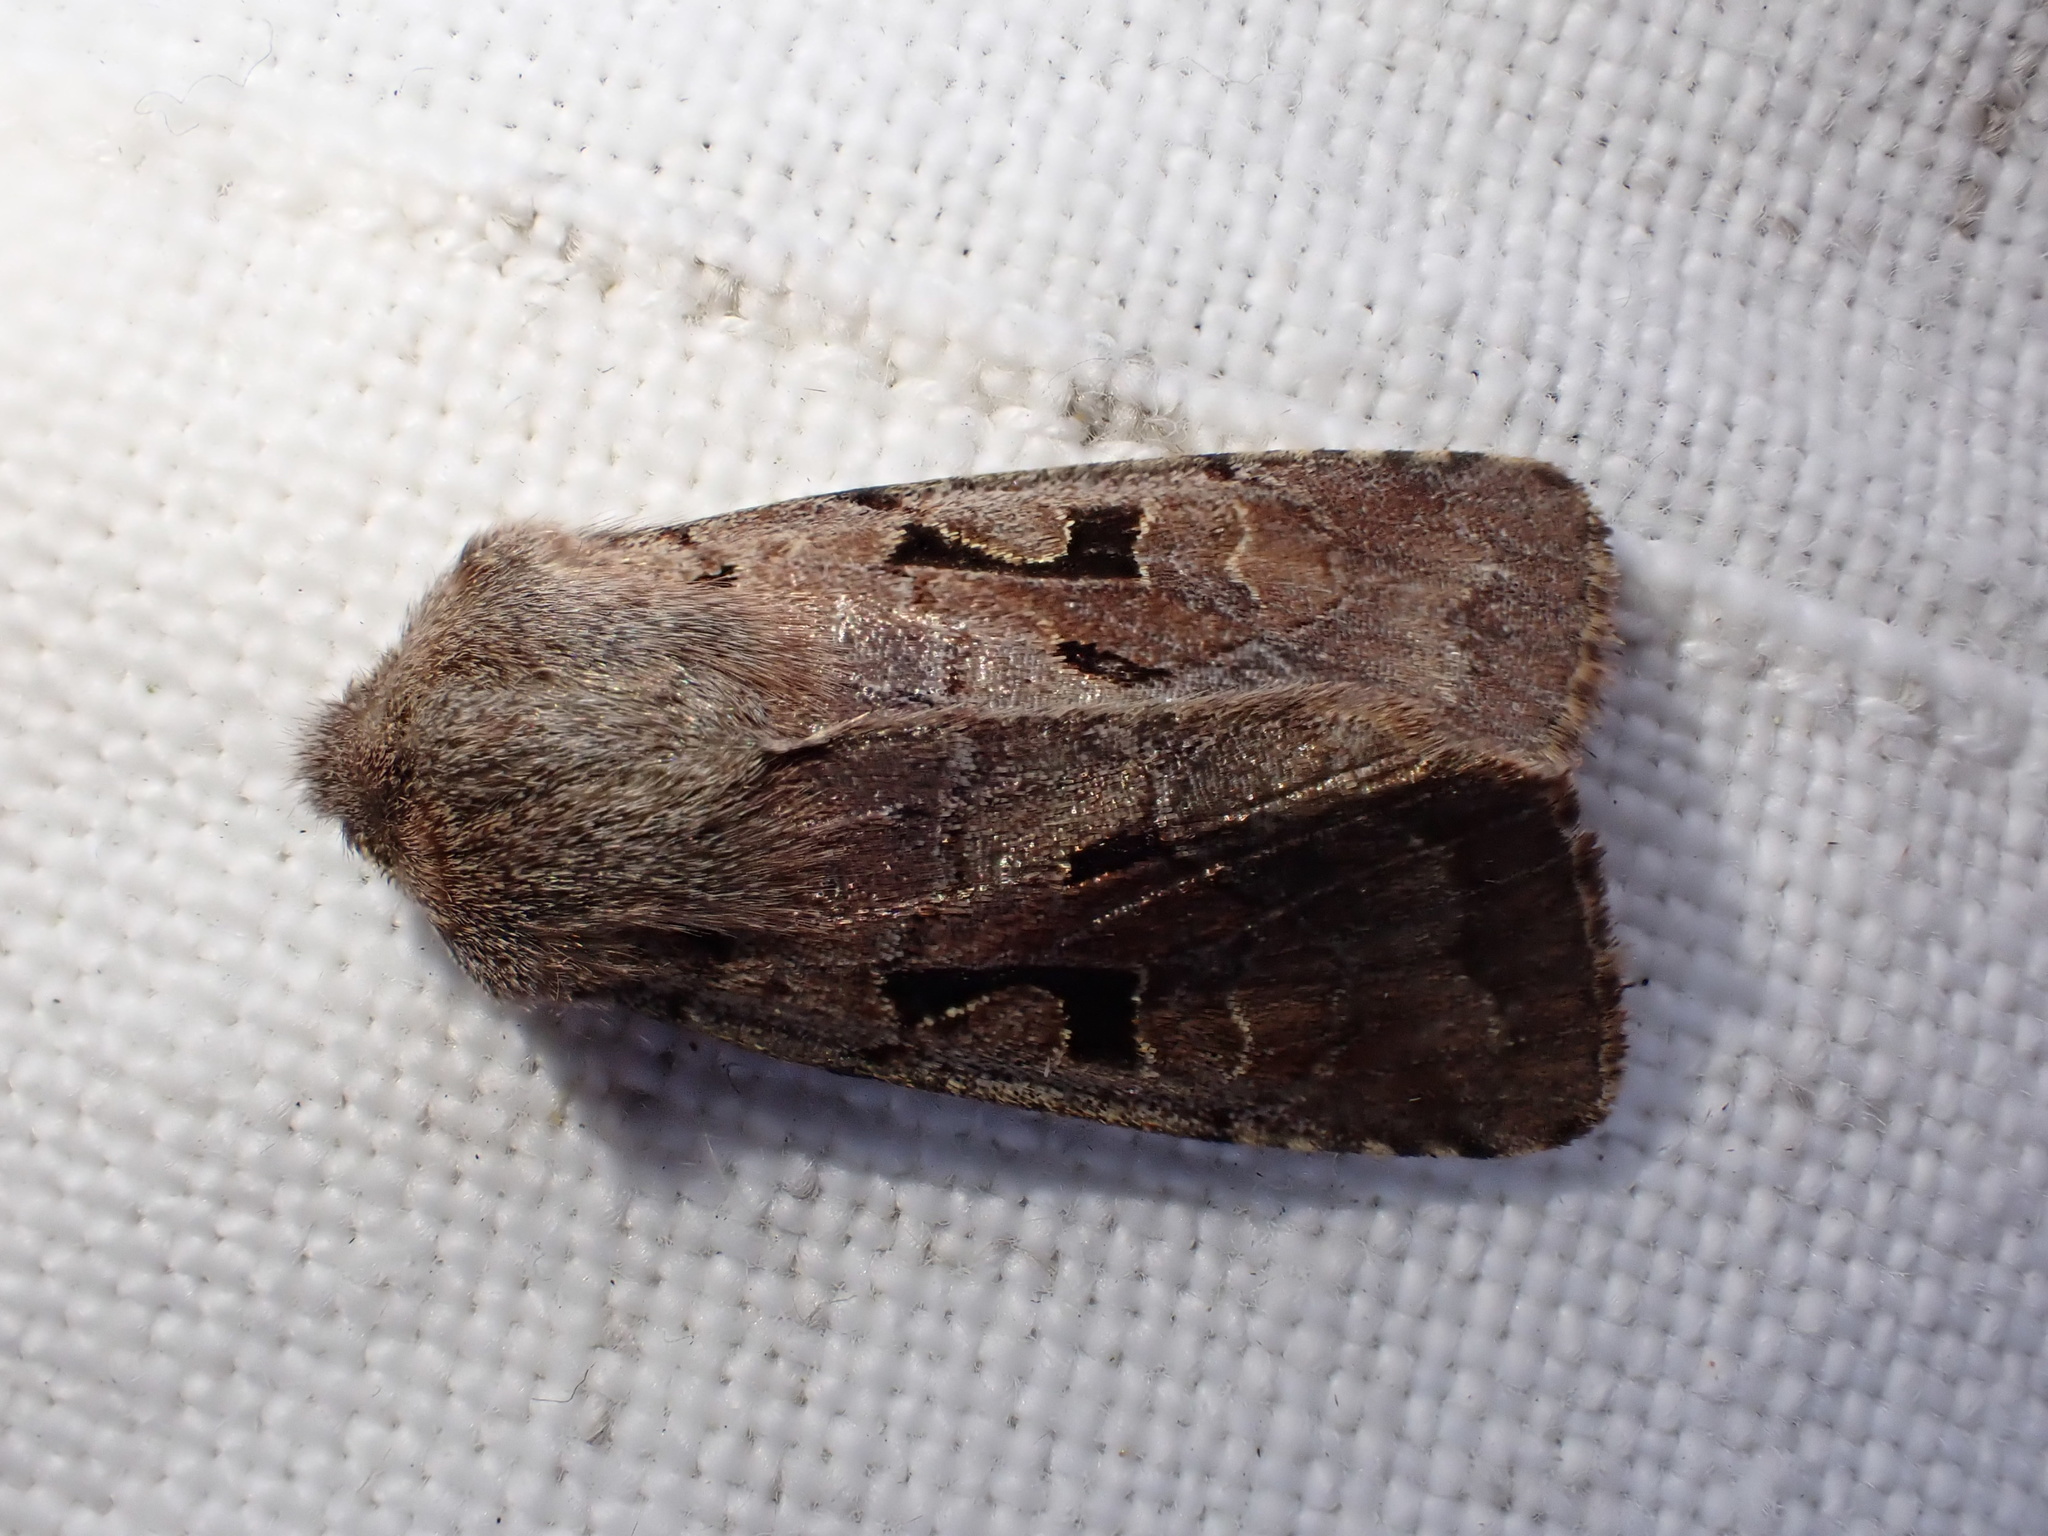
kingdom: Animalia
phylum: Arthropoda
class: Insecta
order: Lepidoptera
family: Noctuidae
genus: Orthosia
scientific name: Orthosia gothica
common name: Hebrew character
